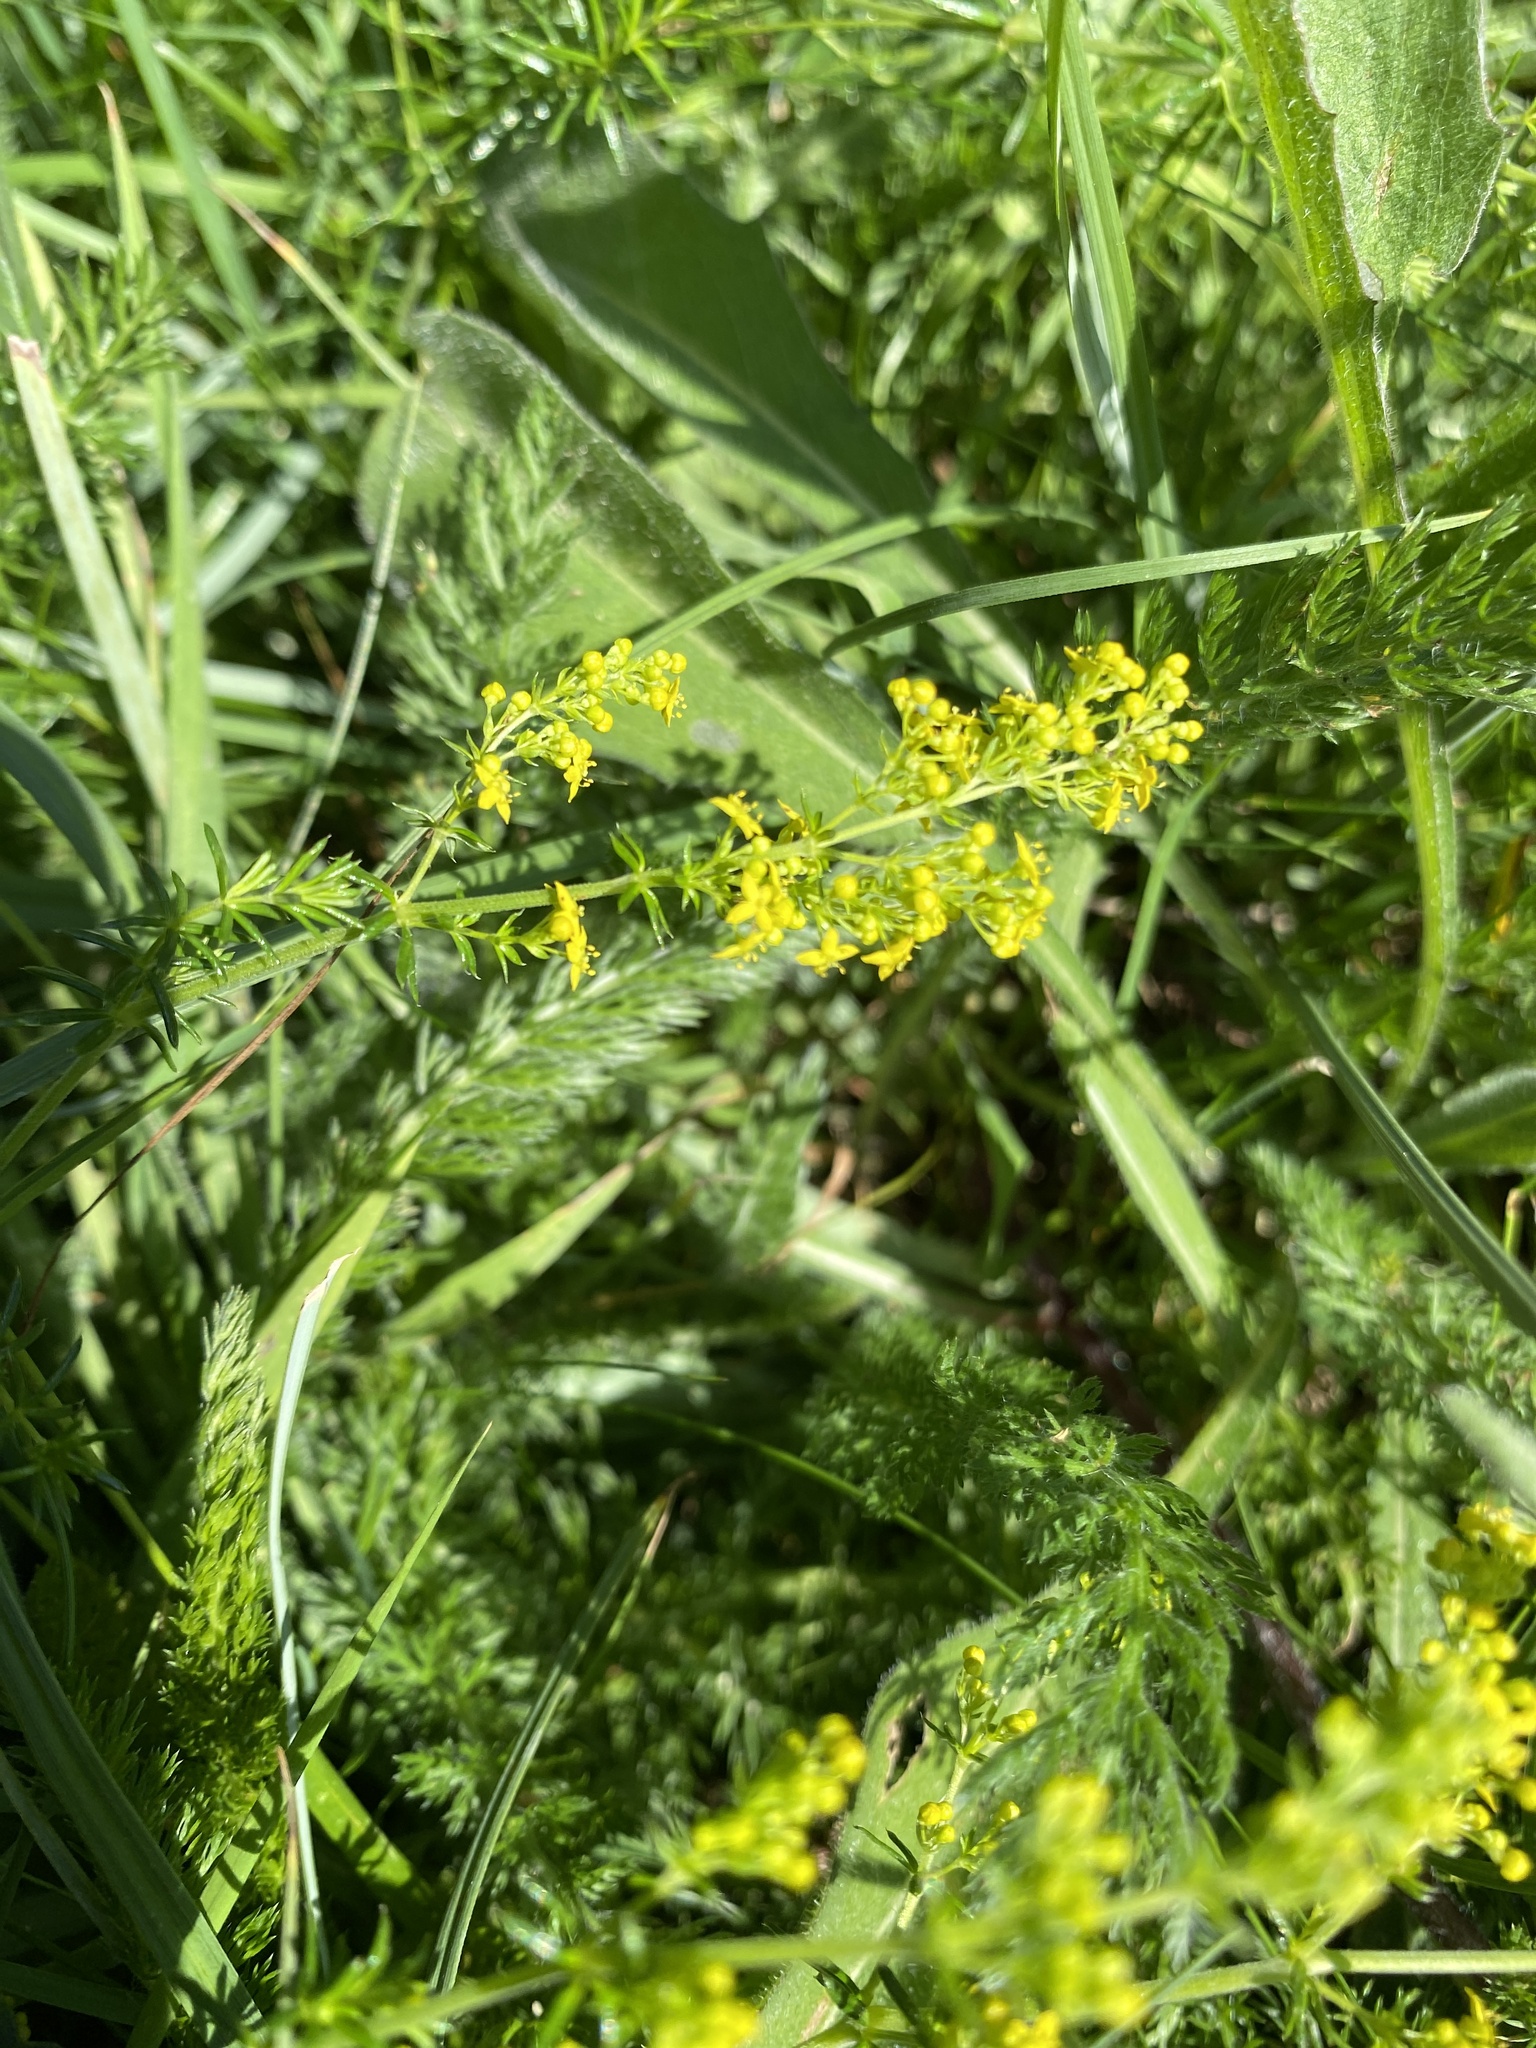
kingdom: Plantae
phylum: Tracheophyta
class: Magnoliopsida
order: Gentianales
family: Rubiaceae
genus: Galium
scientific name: Galium verum
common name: Lady's bedstraw
